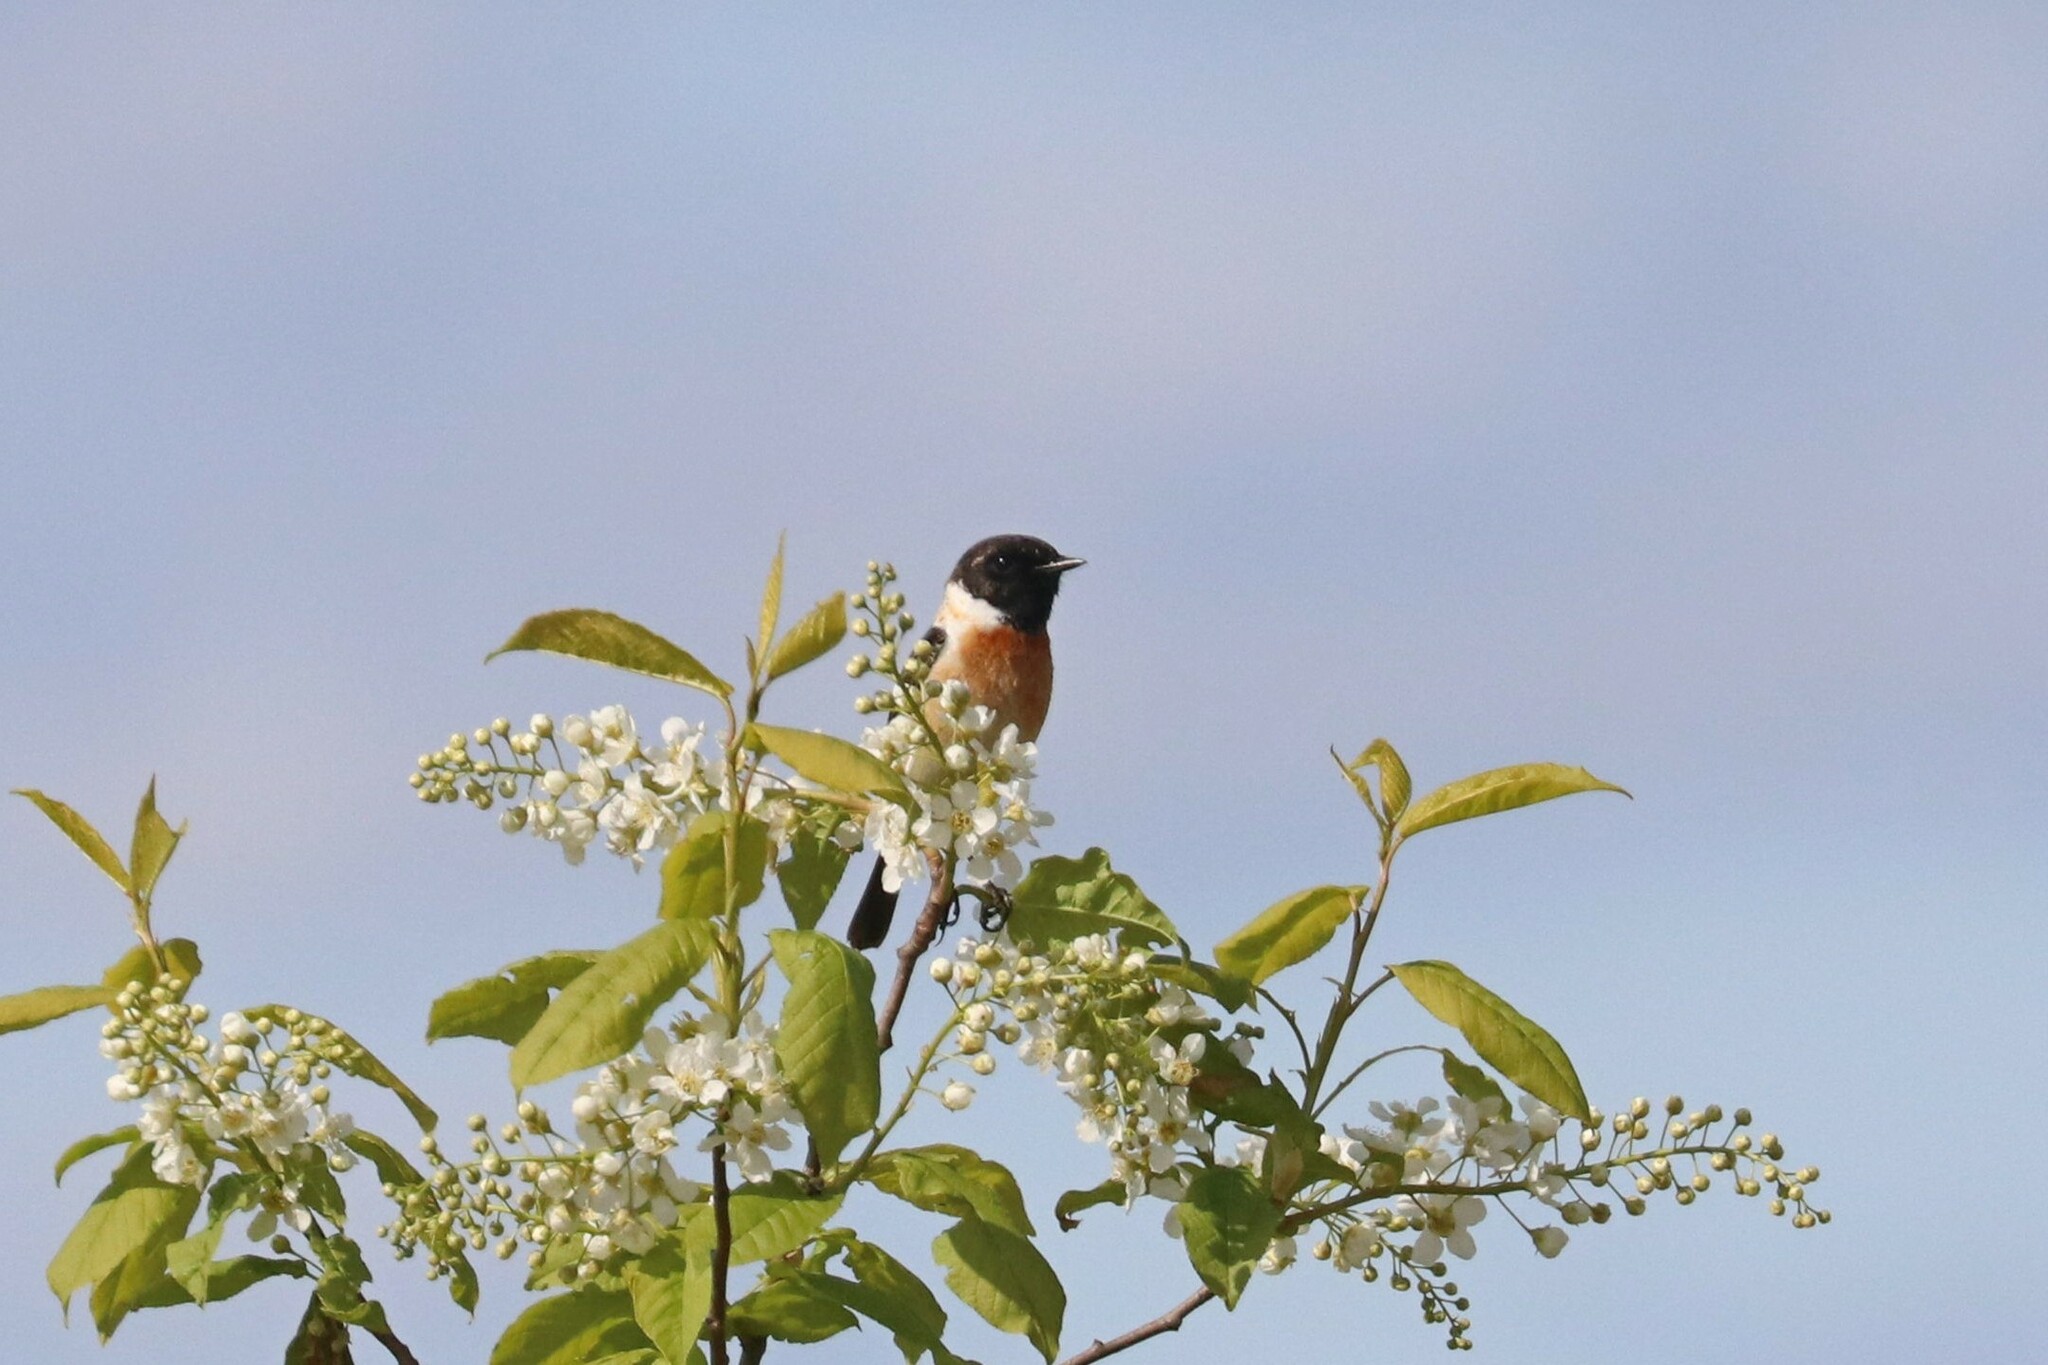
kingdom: Animalia
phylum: Chordata
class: Aves
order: Passeriformes
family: Muscicapidae
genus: Saxicola
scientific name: Saxicola maurus
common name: Siberian stonechat
